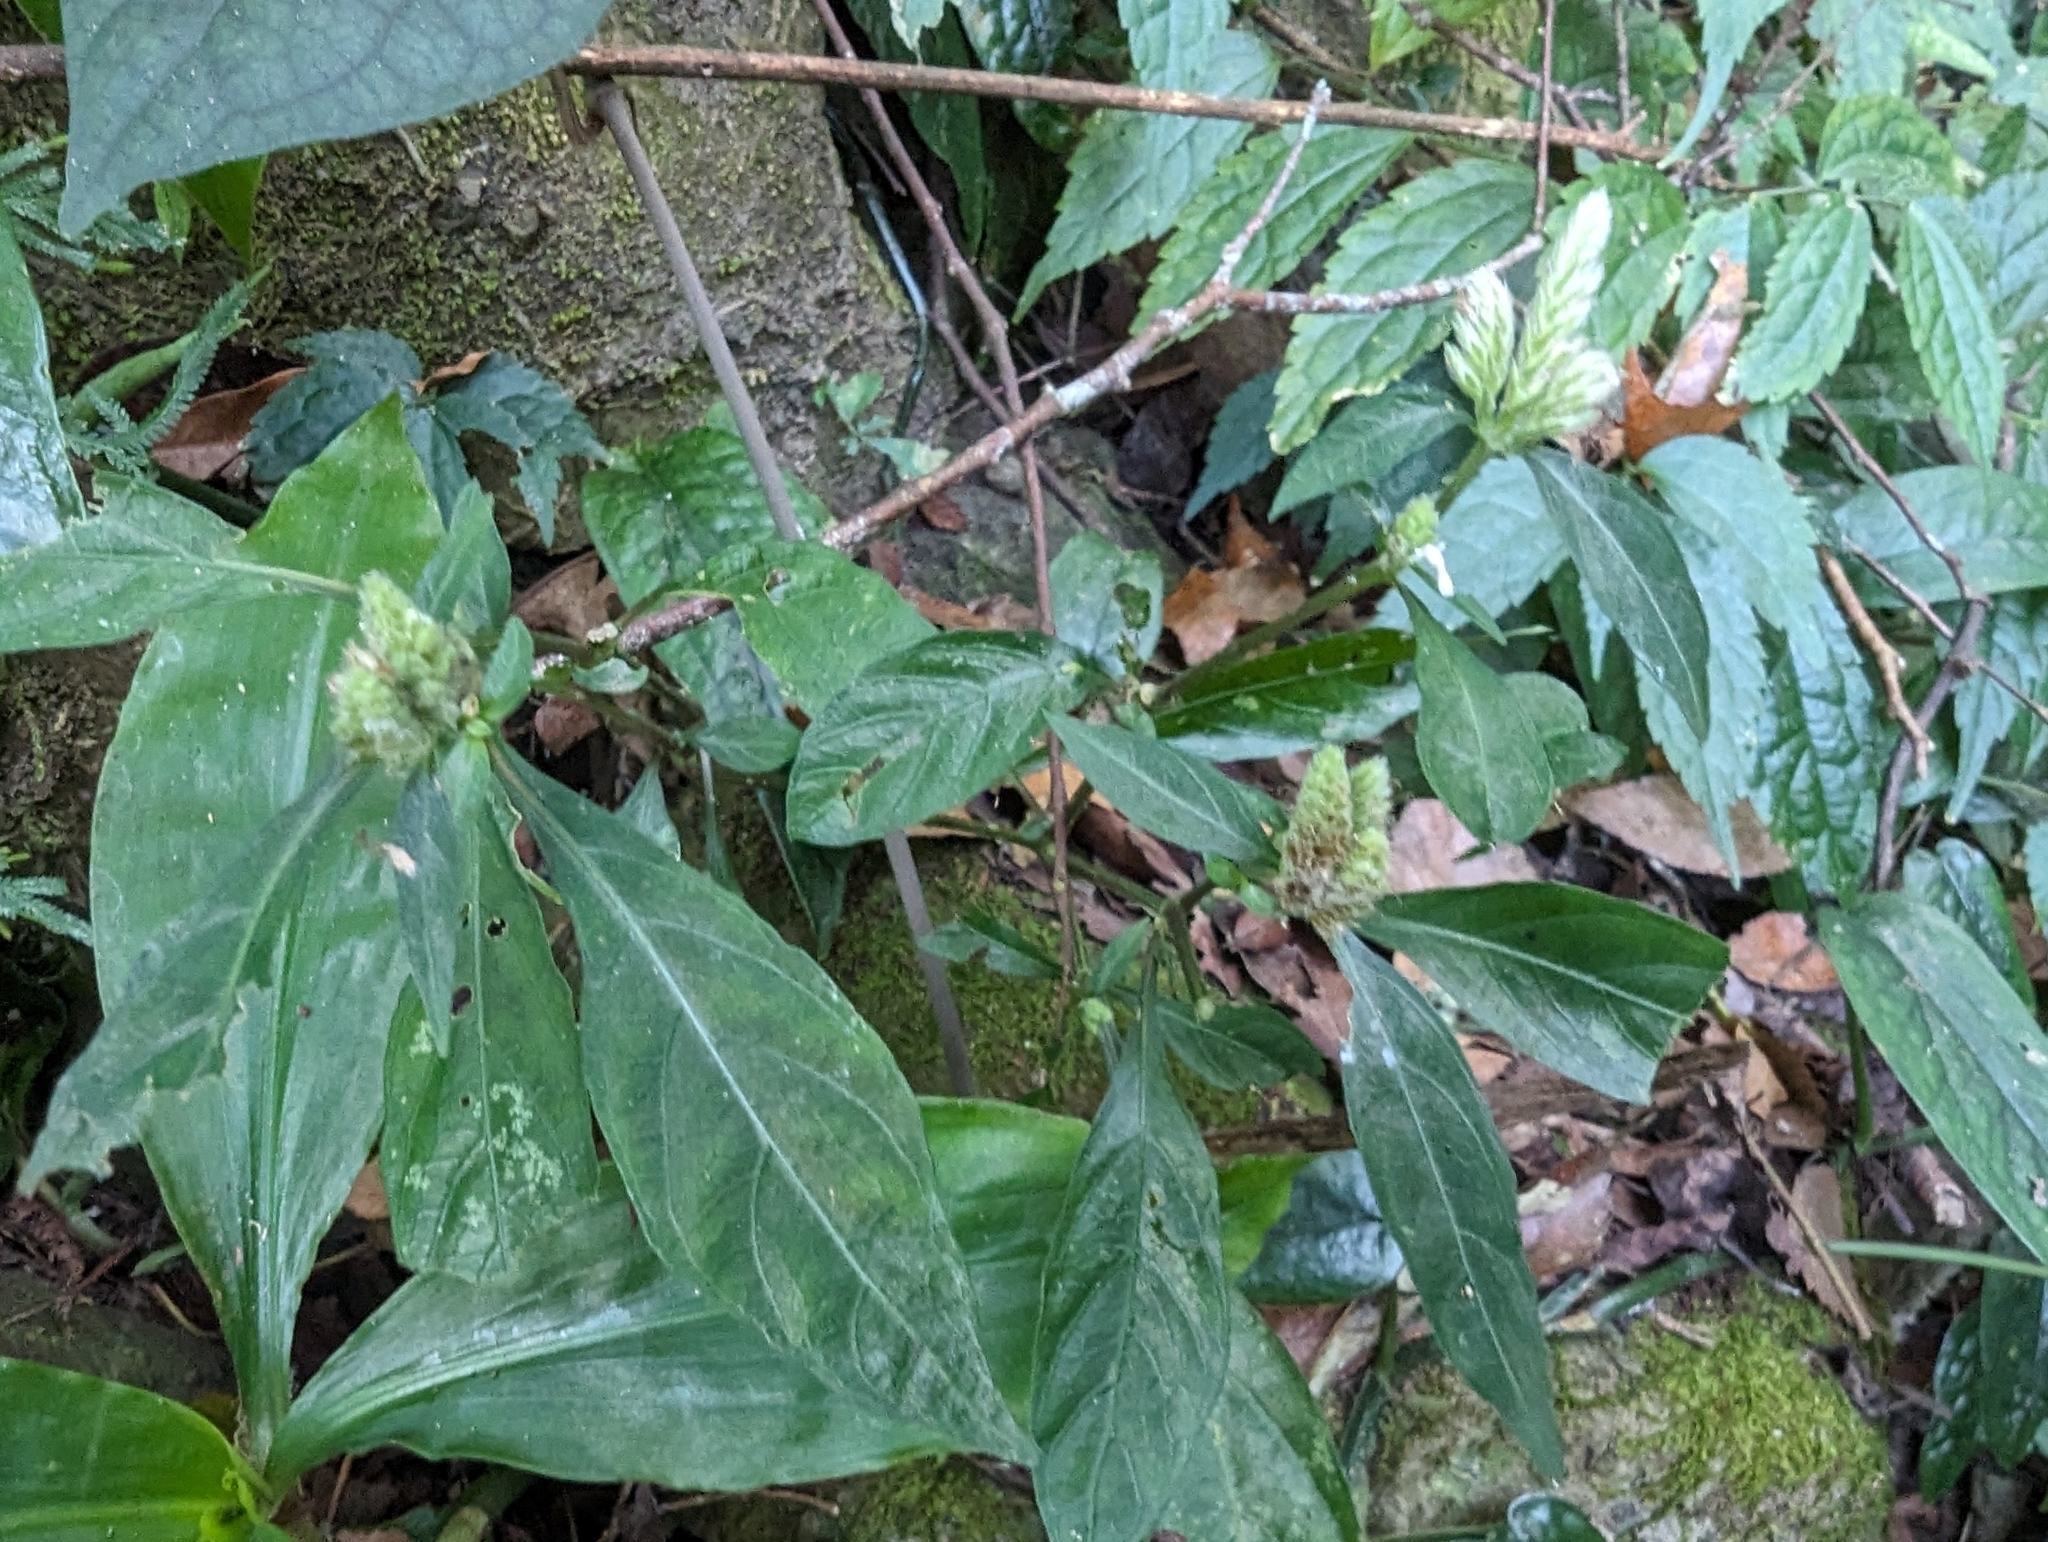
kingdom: Plantae
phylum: Tracheophyta
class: Magnoliopsida
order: Lamiales
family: Acanthaceae
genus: Lepidagathis
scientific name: Lepidagathis formosensis
